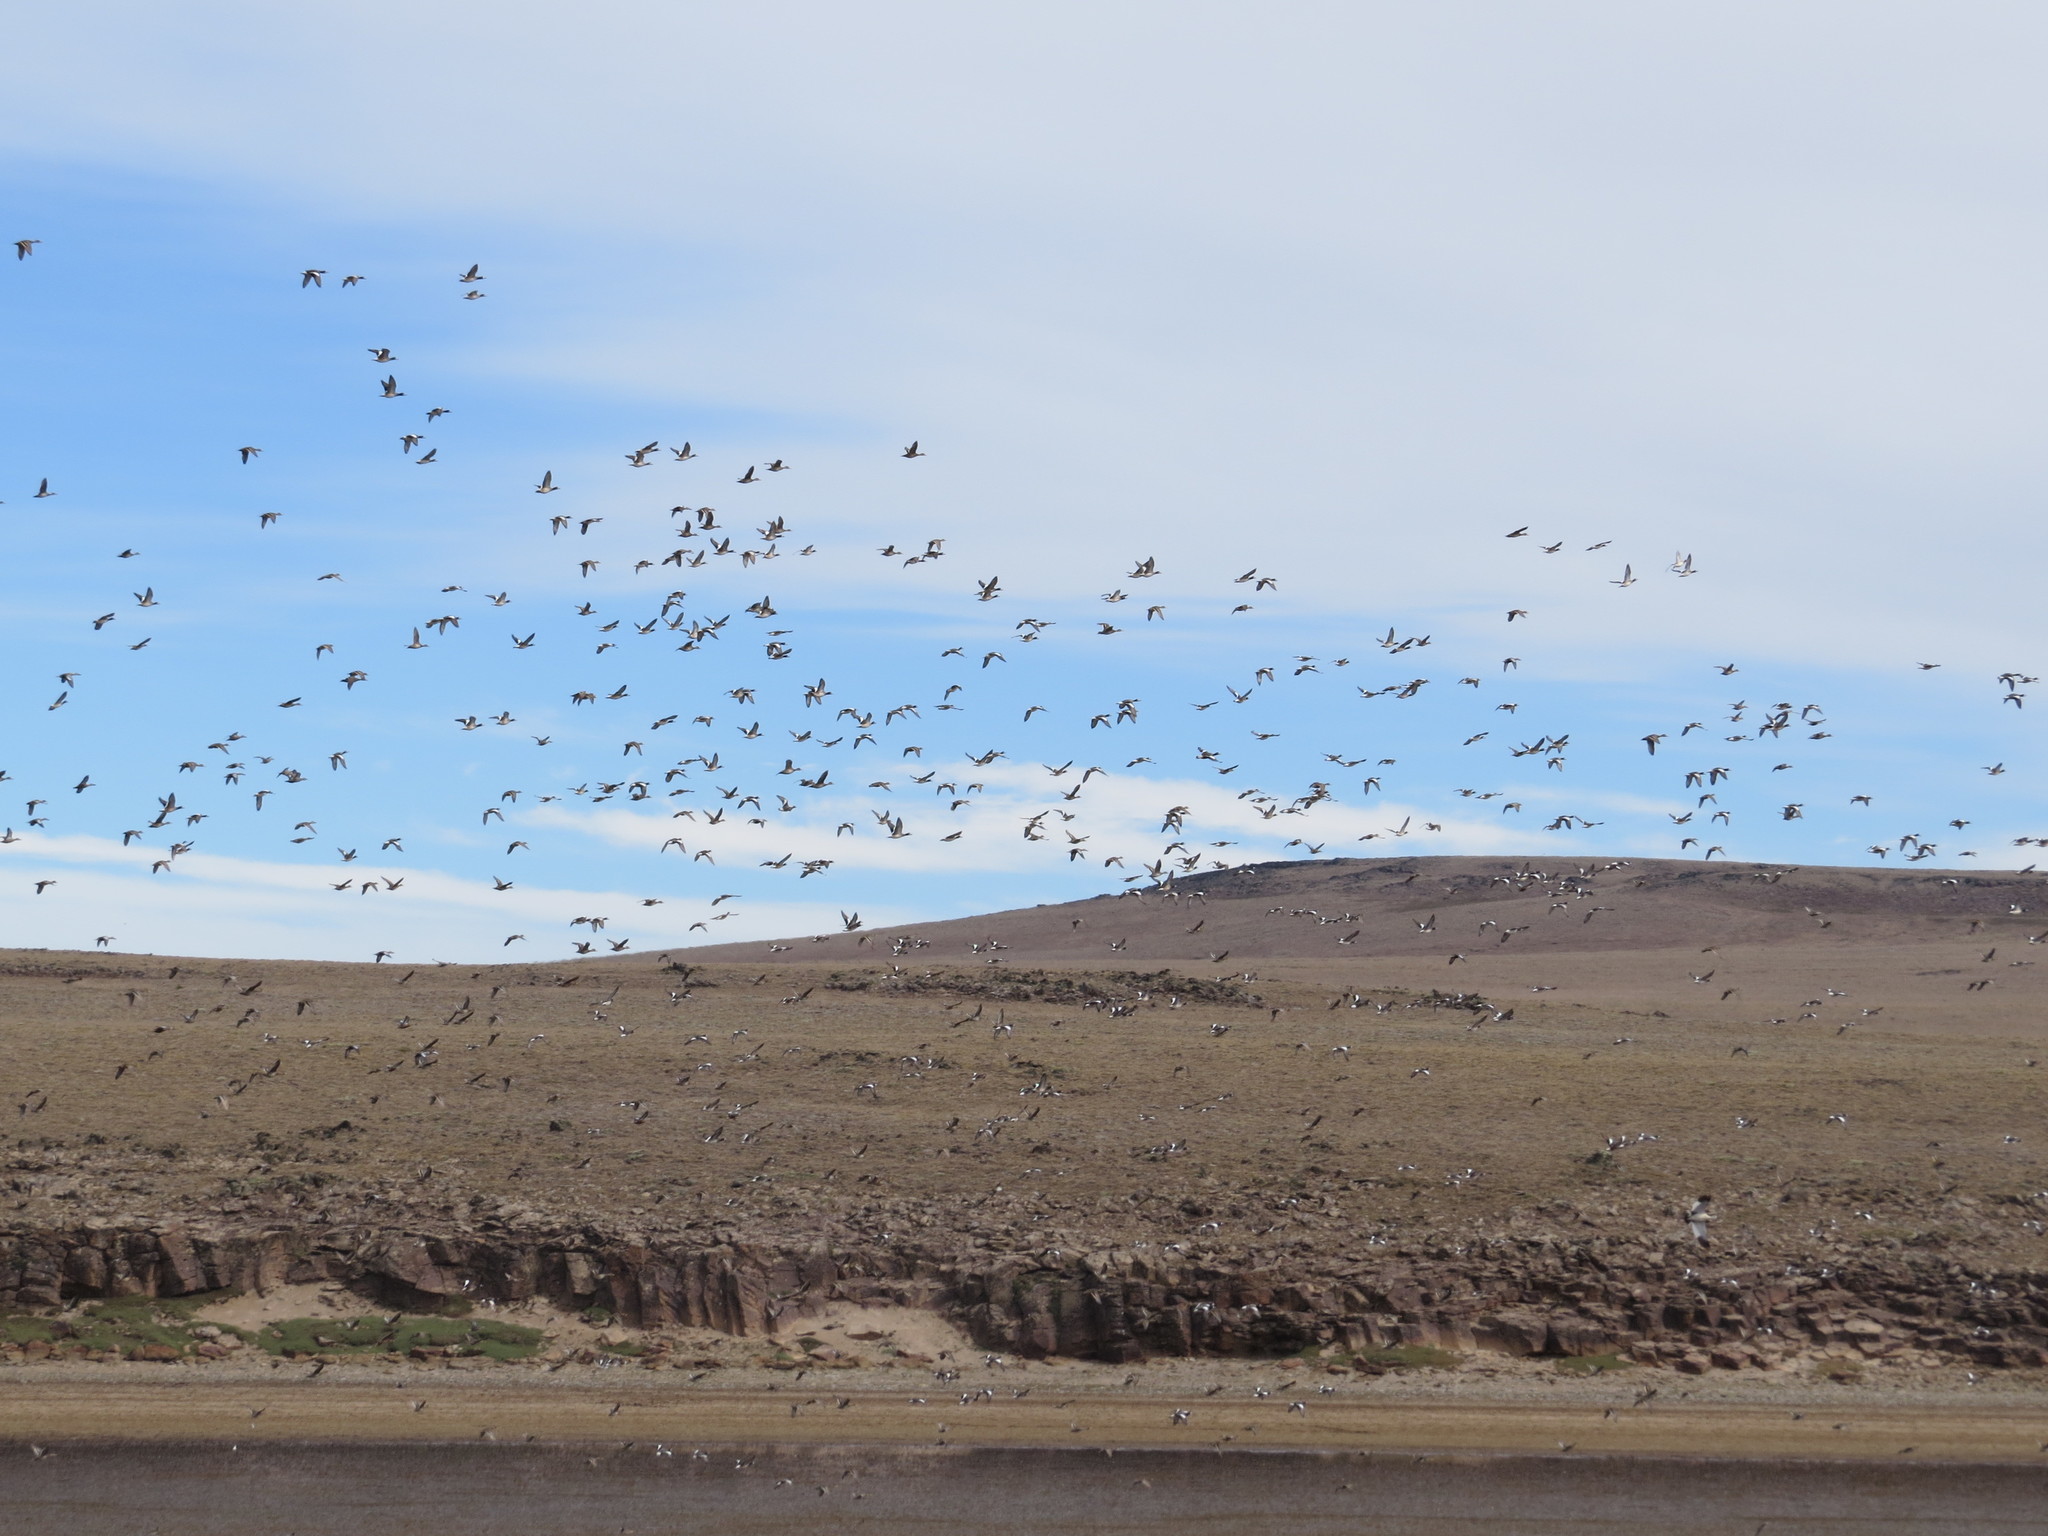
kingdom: Animalia
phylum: Chordata
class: Aves
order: Anseriformes
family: Anatidae
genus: Mareca
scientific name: Mareca sibilatrix
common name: Chiloe wigeon
